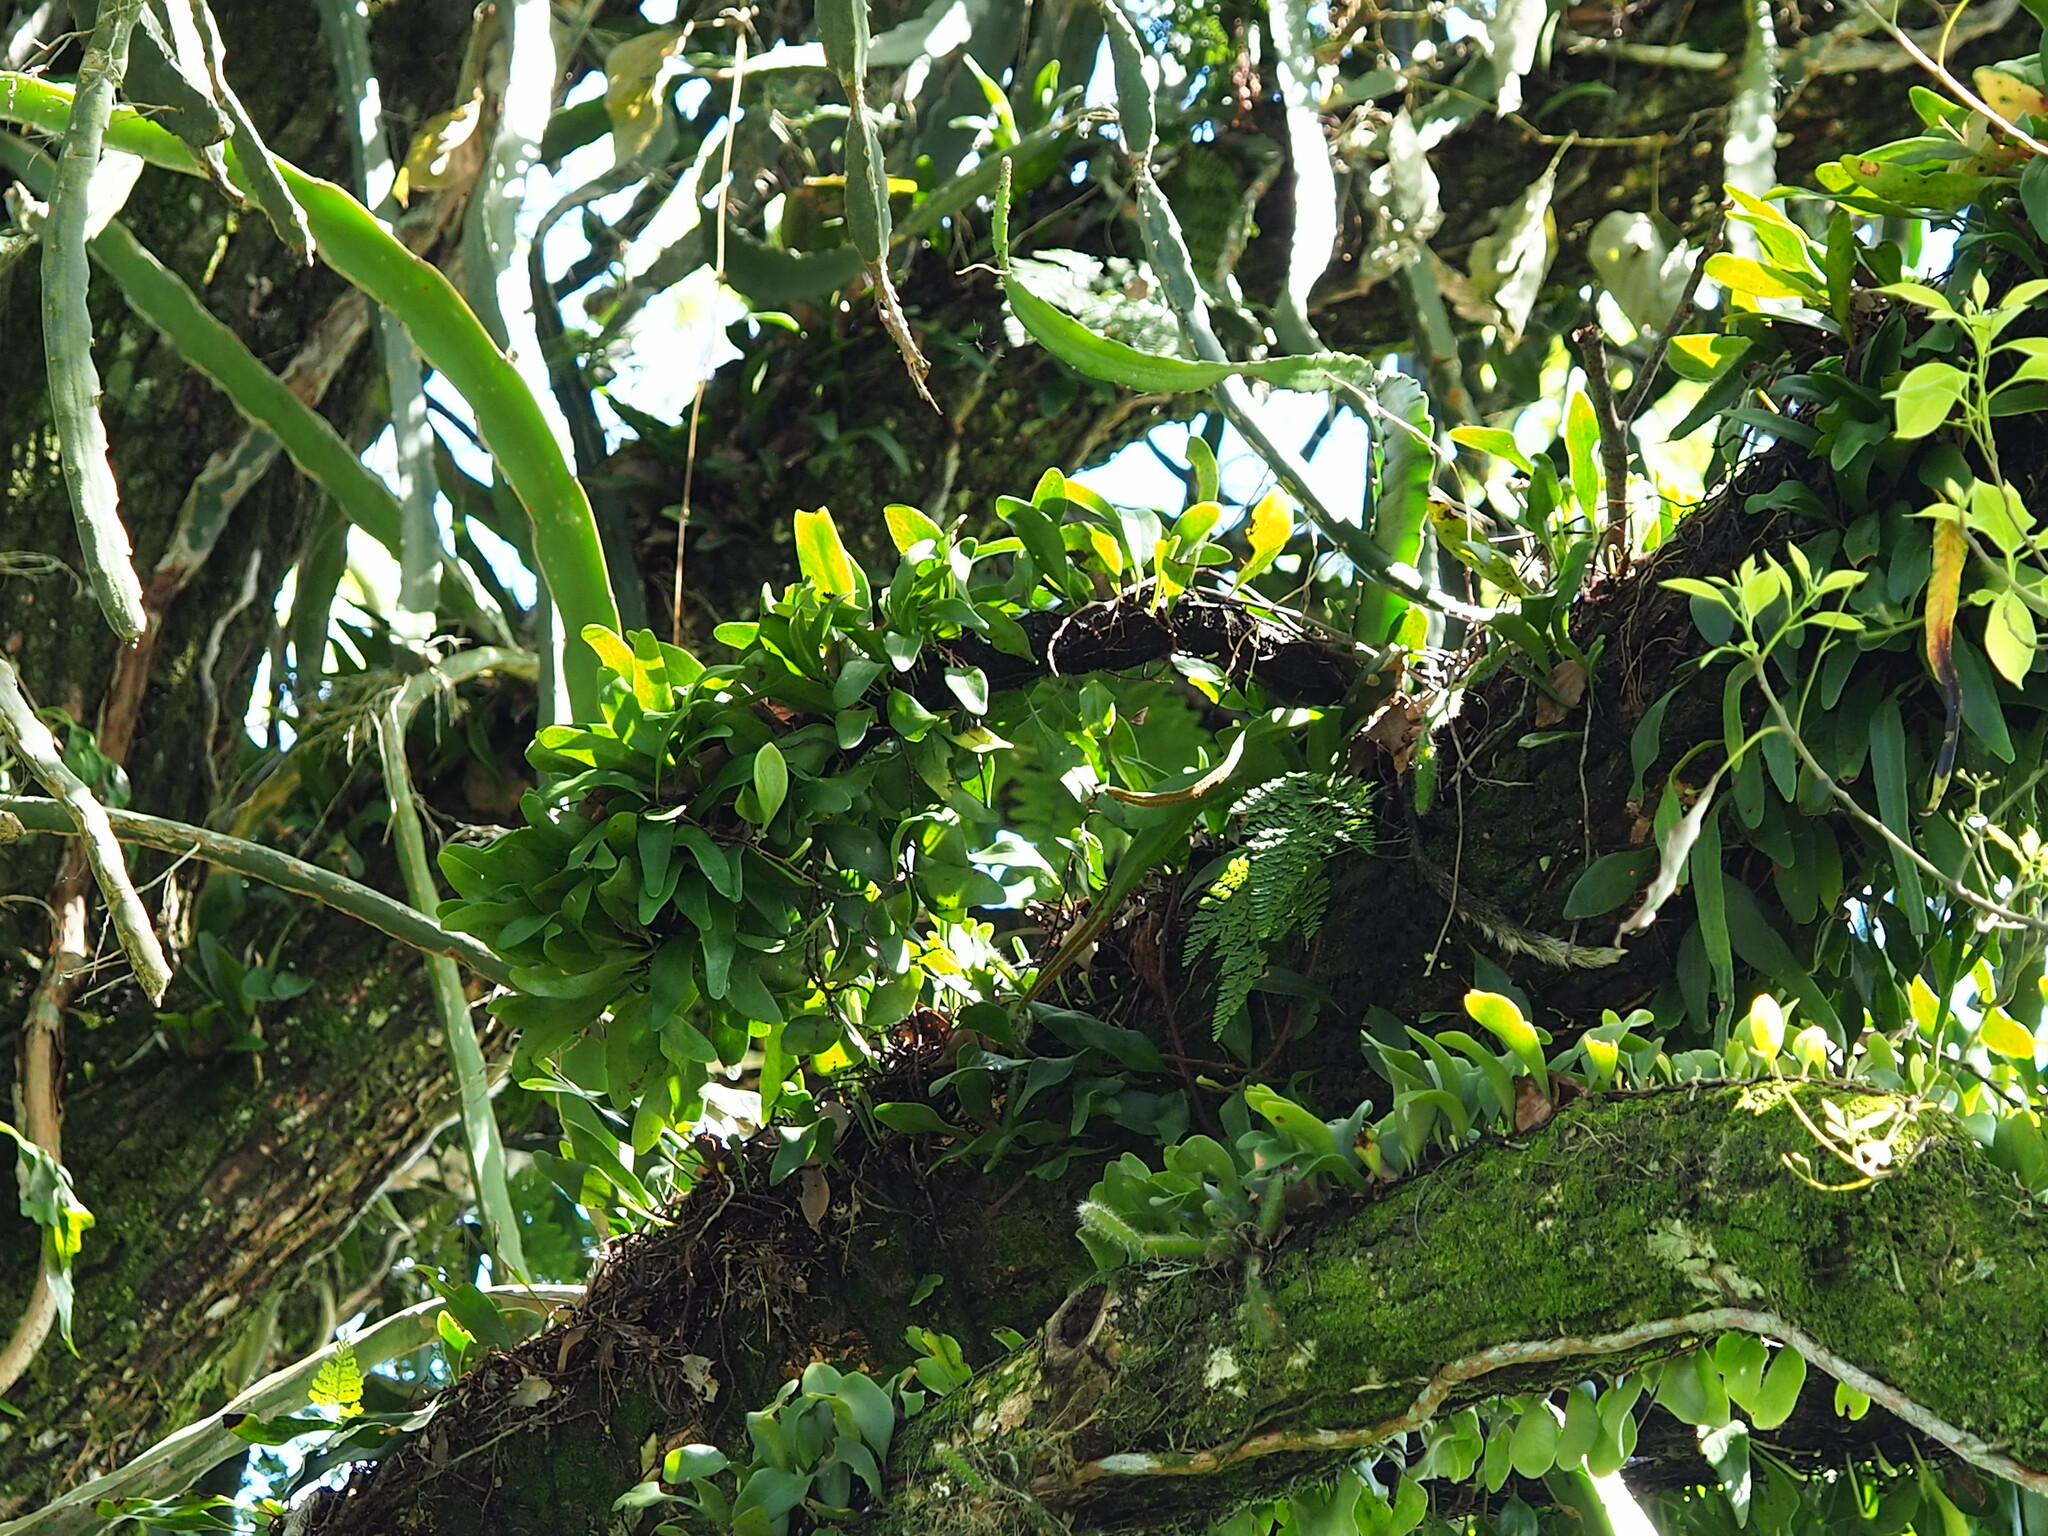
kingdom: Plantae
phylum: Tracheophyta
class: Polypodiopsida
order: Polypodiales
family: Polypodiaceae
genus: Pyrrosia
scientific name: Pyrrosia lanceolata
